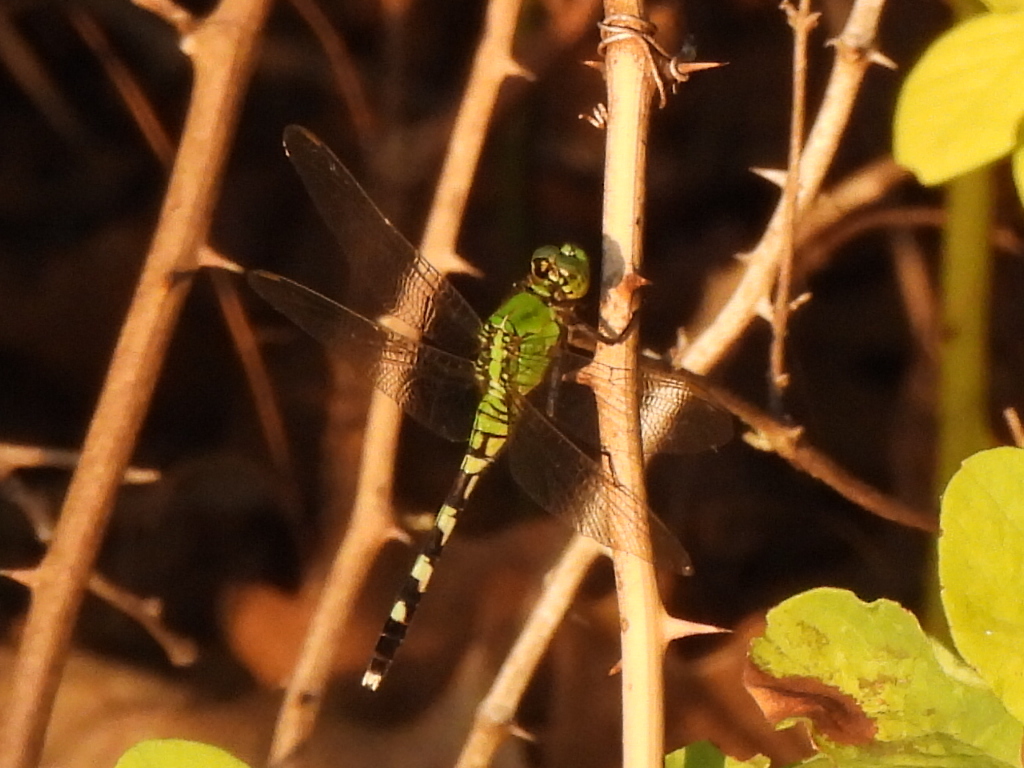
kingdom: Animalia
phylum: Arthropoda
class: Insecta
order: Odonata
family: Libellulidae
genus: Erythemis
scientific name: Erythemis simplicicollis
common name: Eastern pondhawk
